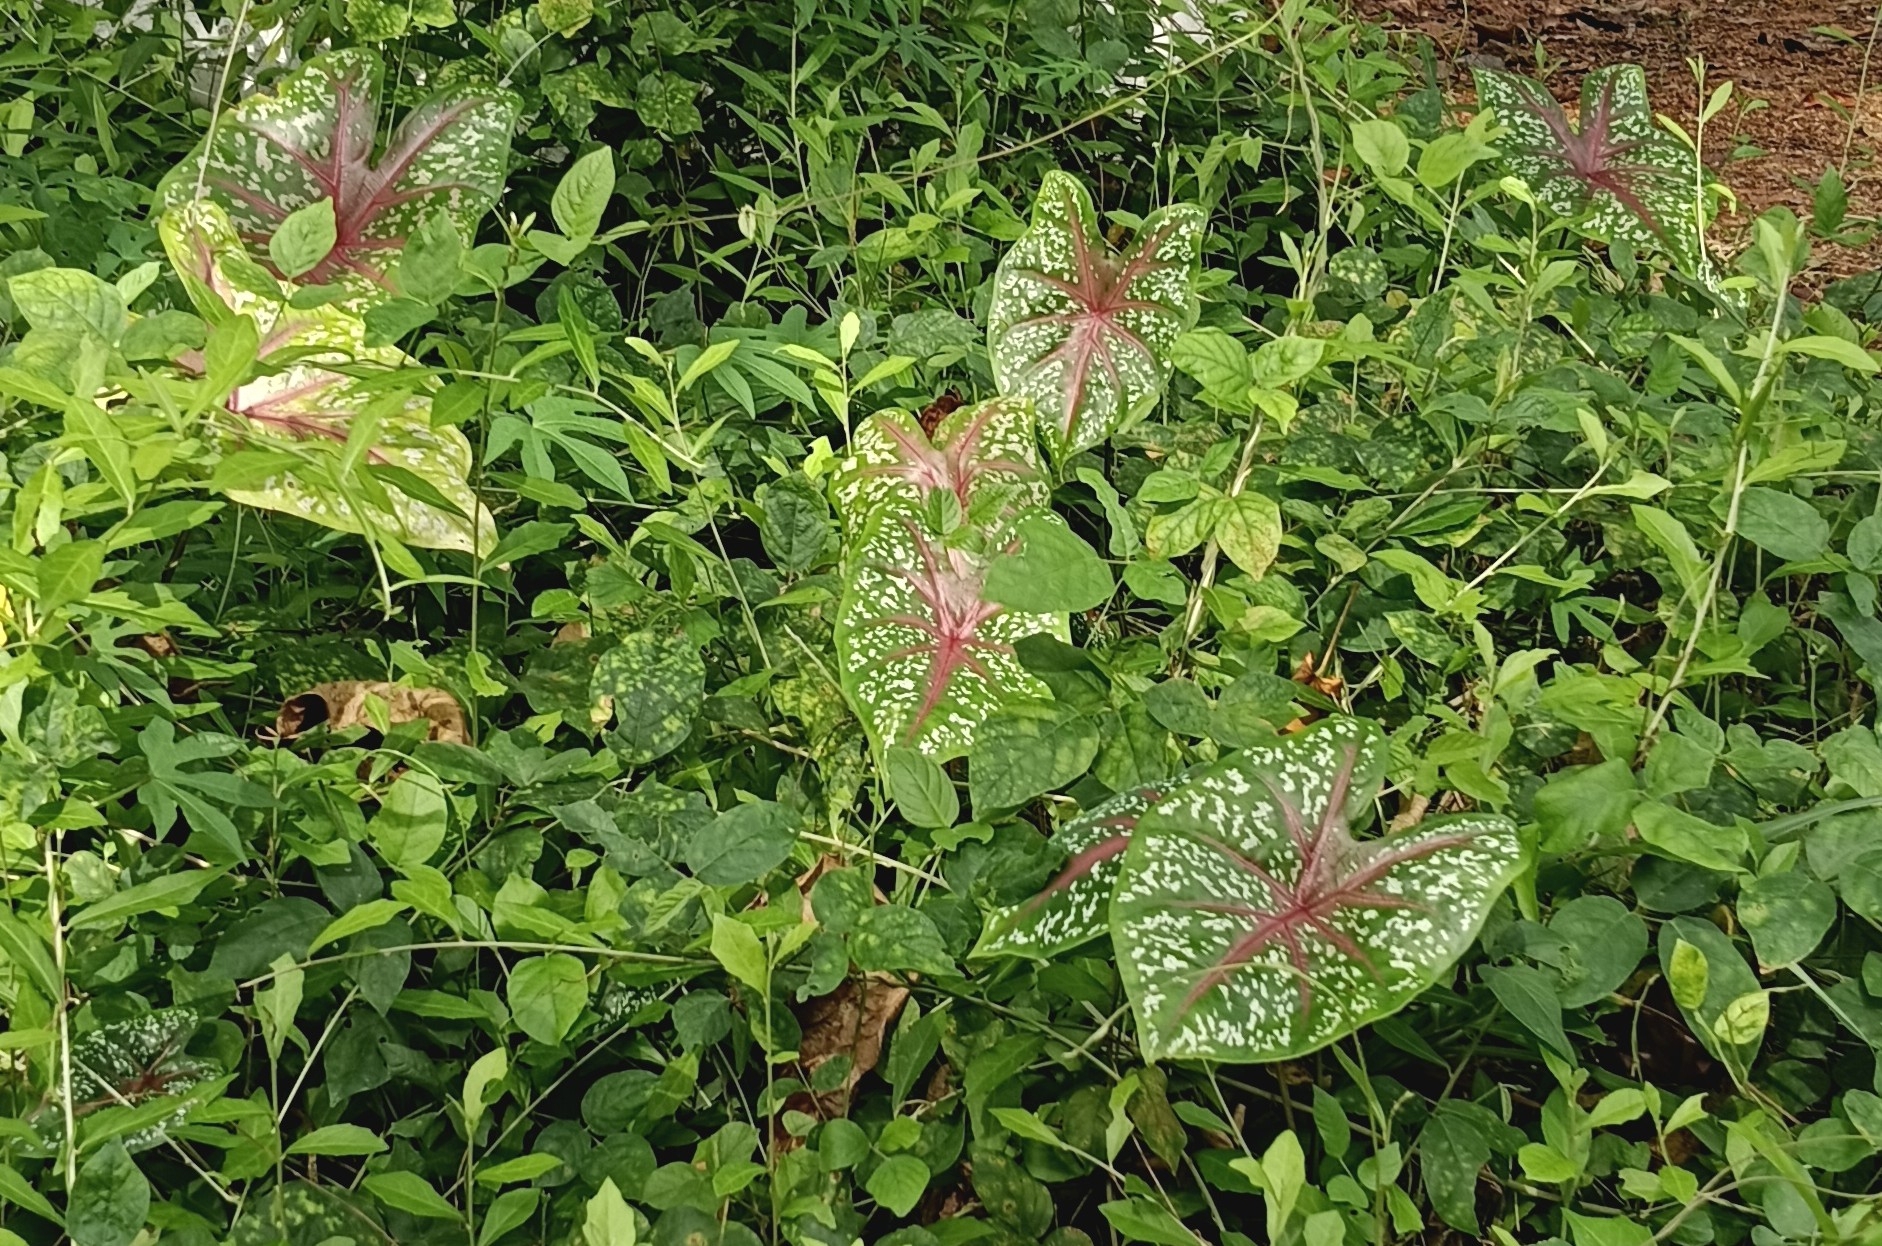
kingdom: Plantae
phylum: Tracheophyta
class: Liliopsida
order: Alismatales
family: Araceae
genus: Caladium
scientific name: Caladium bicolor
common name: Artist's pallet
